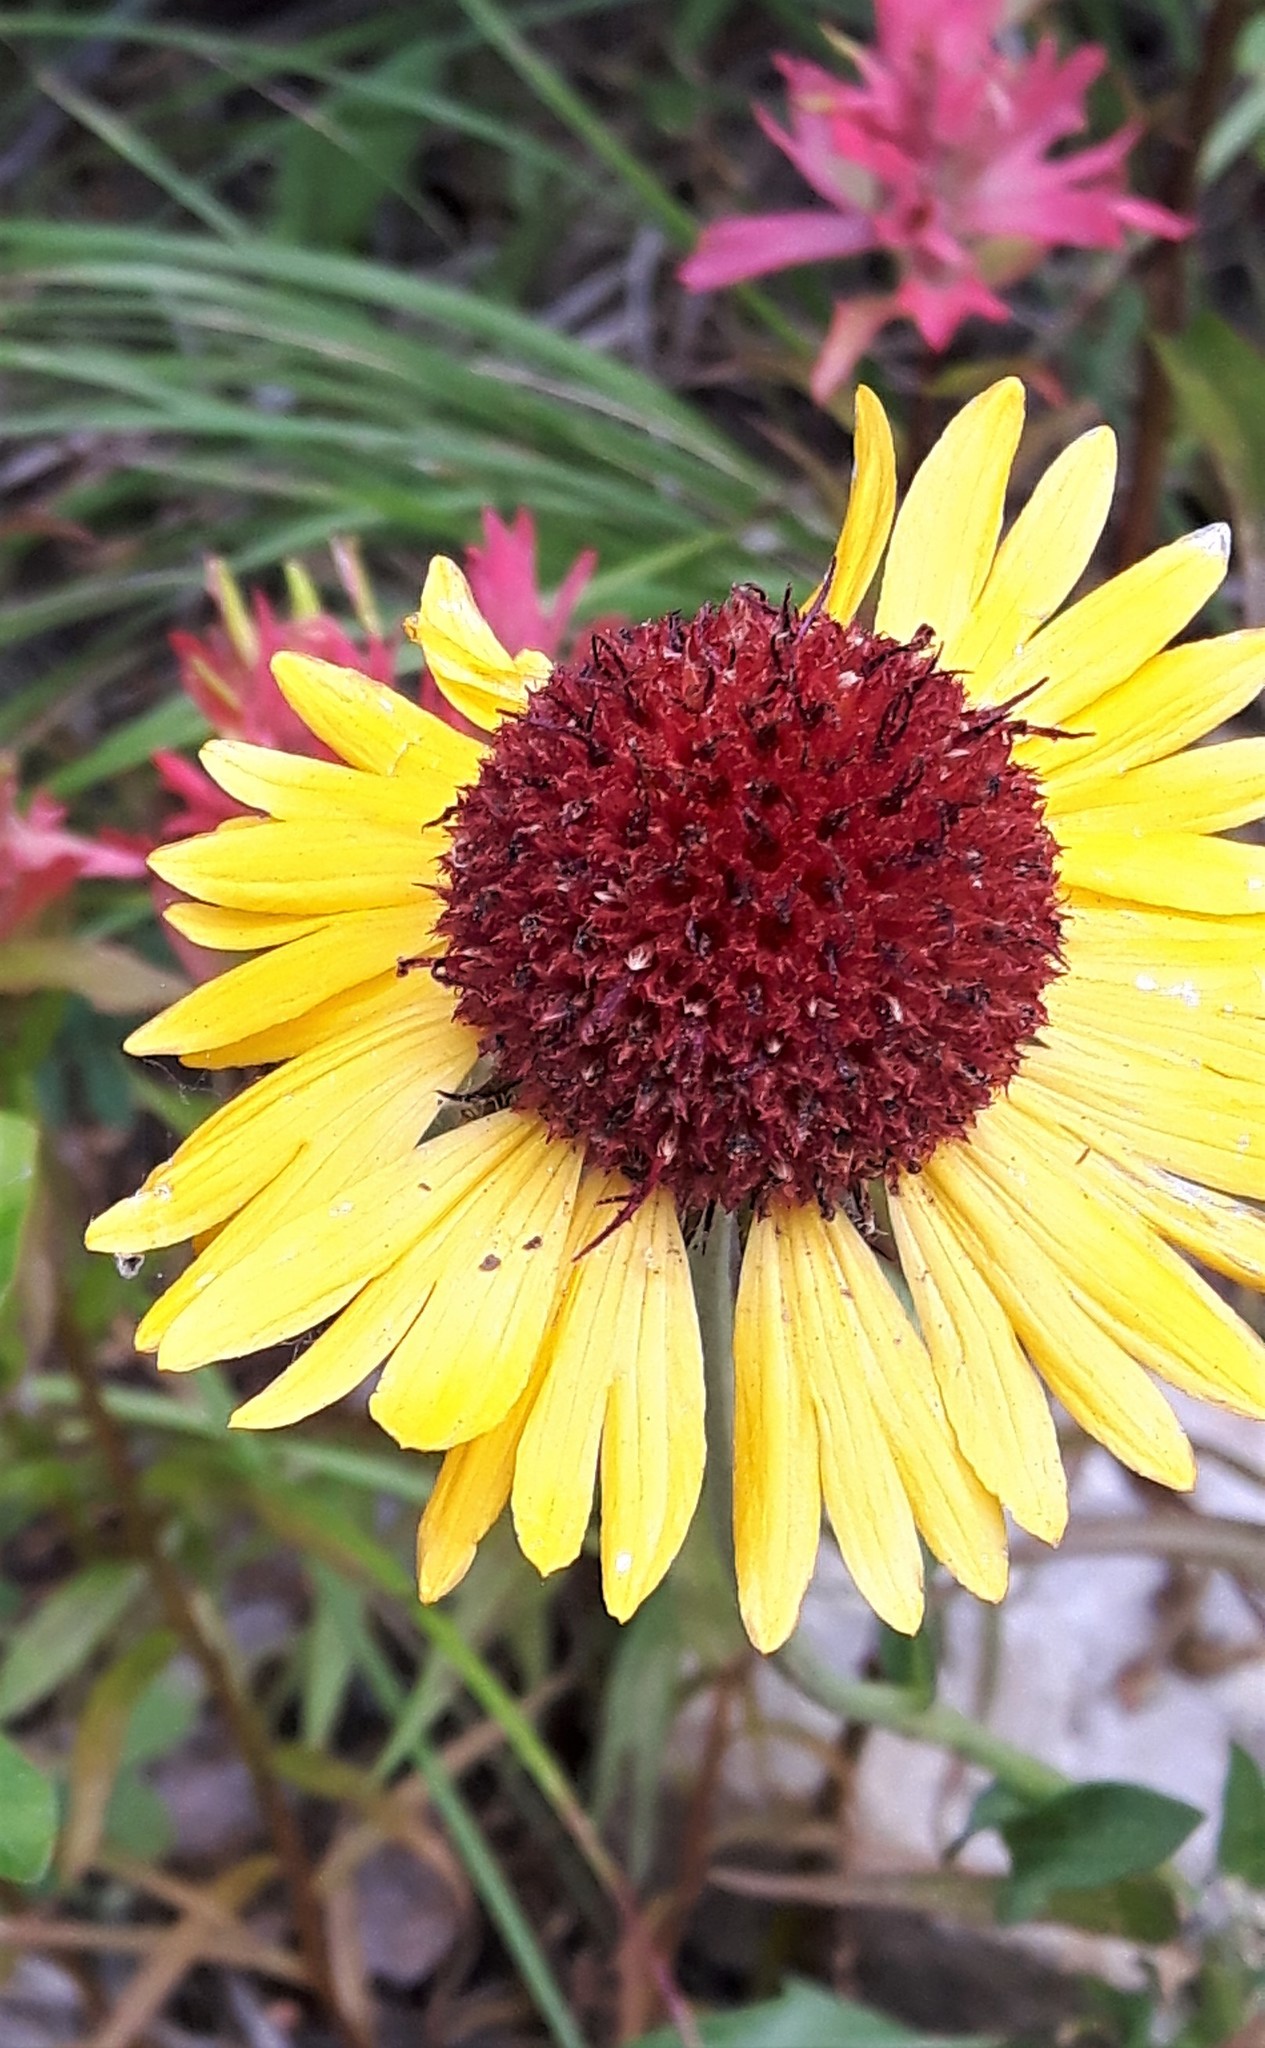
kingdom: Plantae
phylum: Tracheophyta
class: Magnoliopsida
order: Asterales
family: Asteraceae
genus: Gaillardia
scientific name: Gaillardia aristata
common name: Blanket-flower
